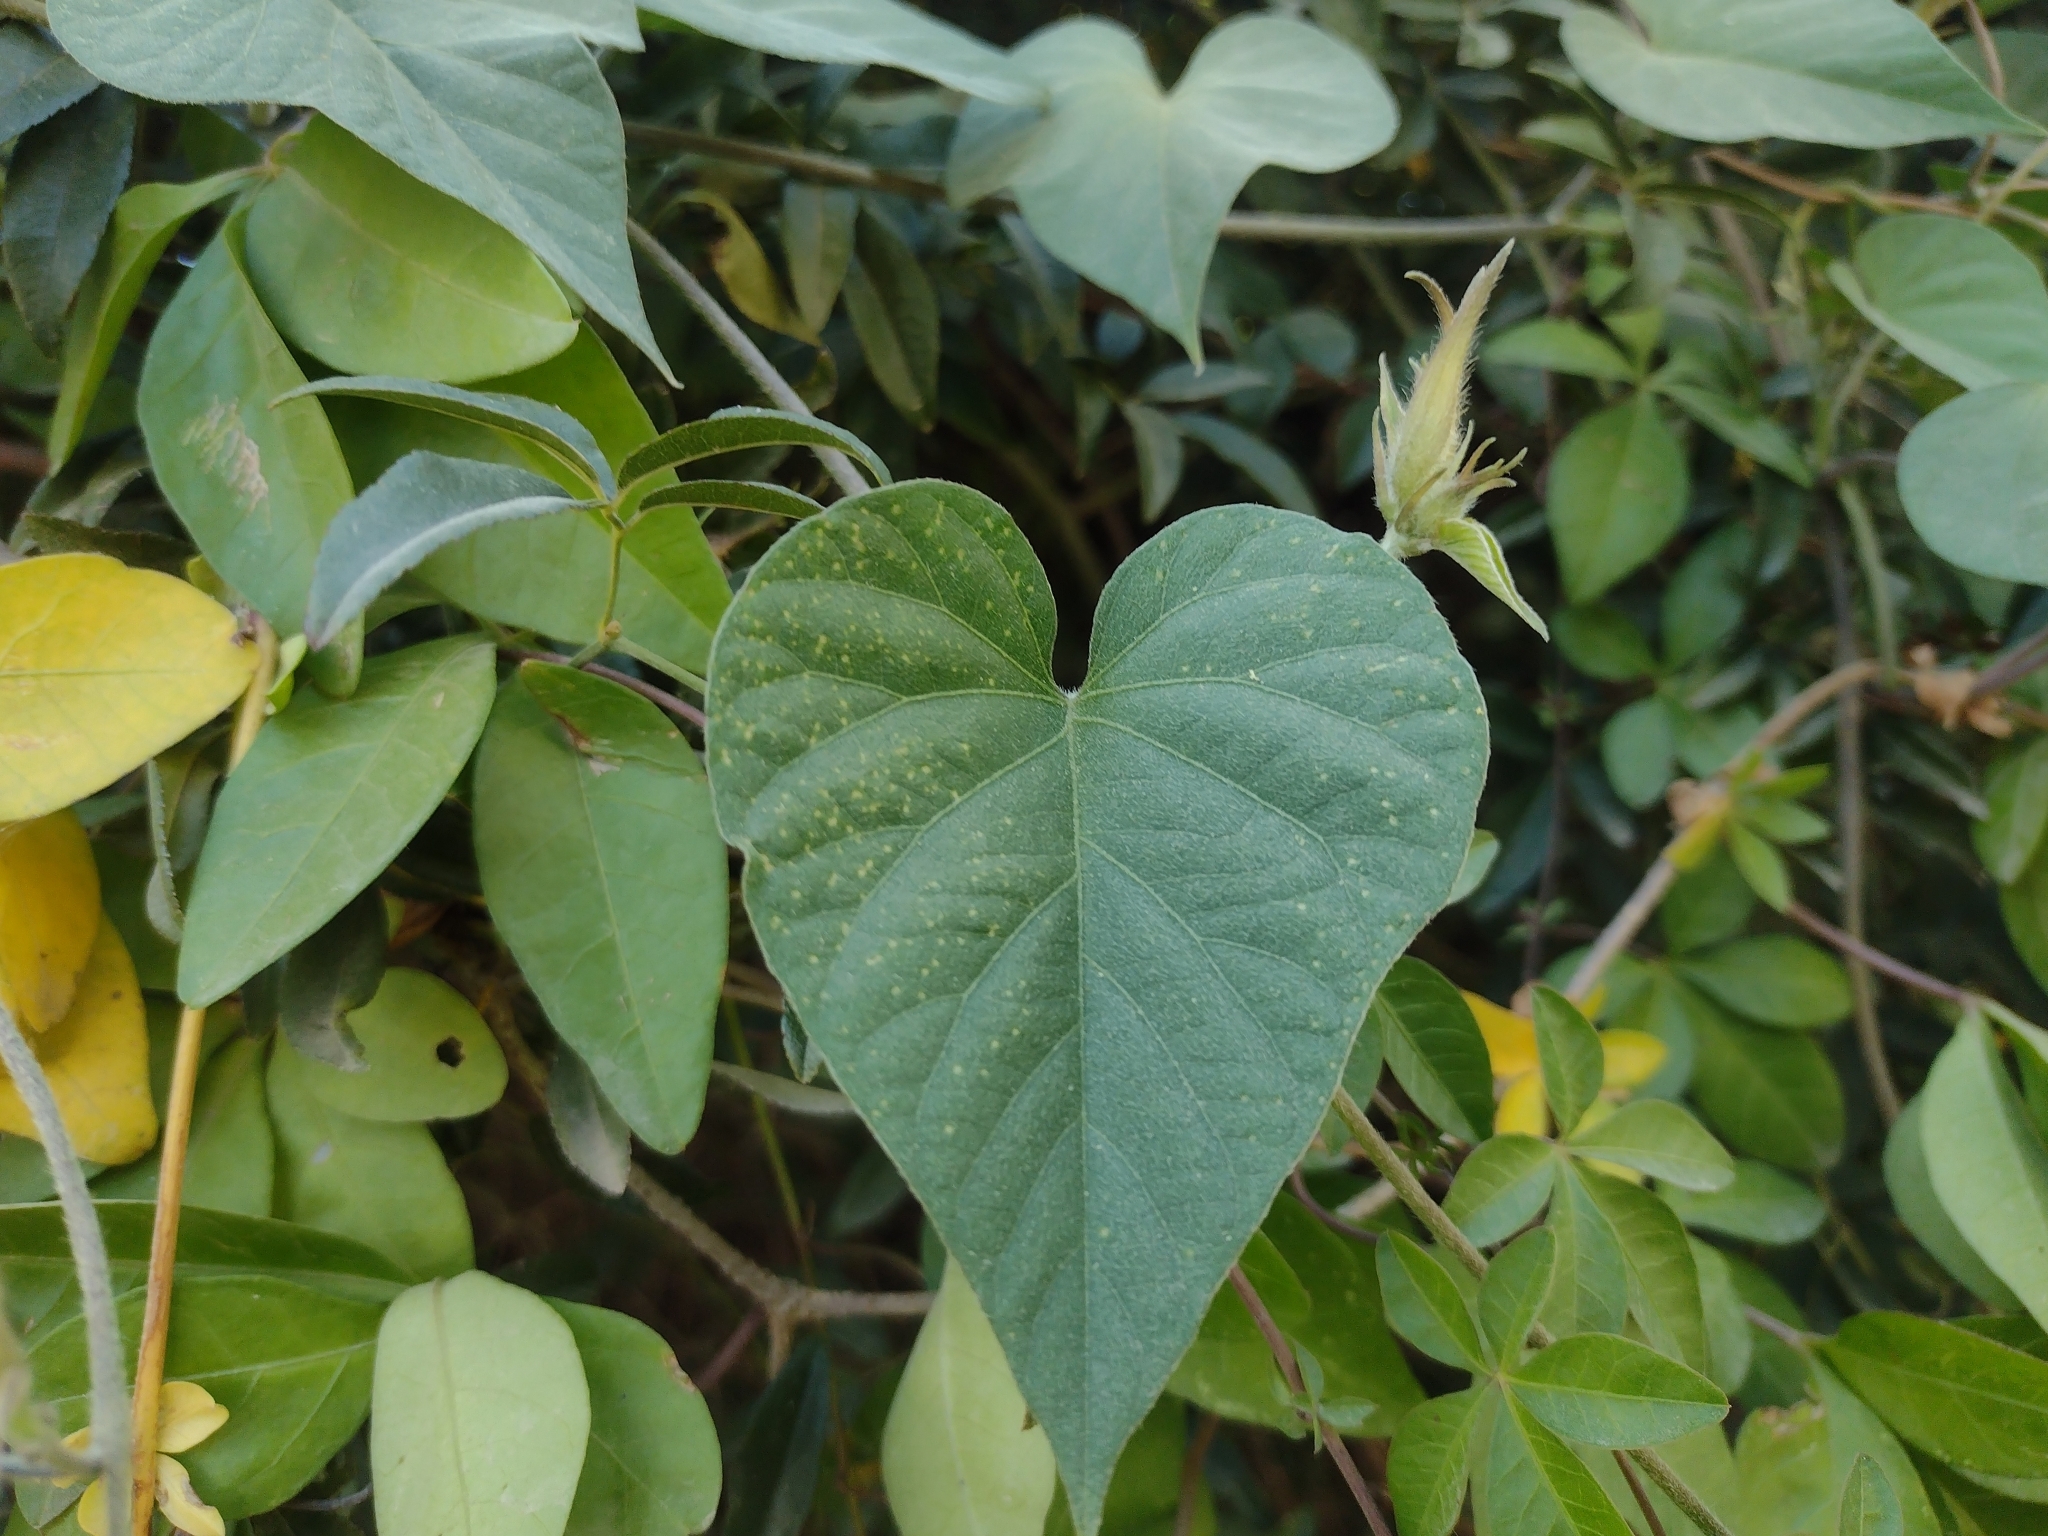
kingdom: Plantae
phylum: Tracheophyta
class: Magnoliopsida
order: Solanales
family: Convolvulaceae
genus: Ipomoea
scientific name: Ipomoea indica
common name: Blue dawnflower
